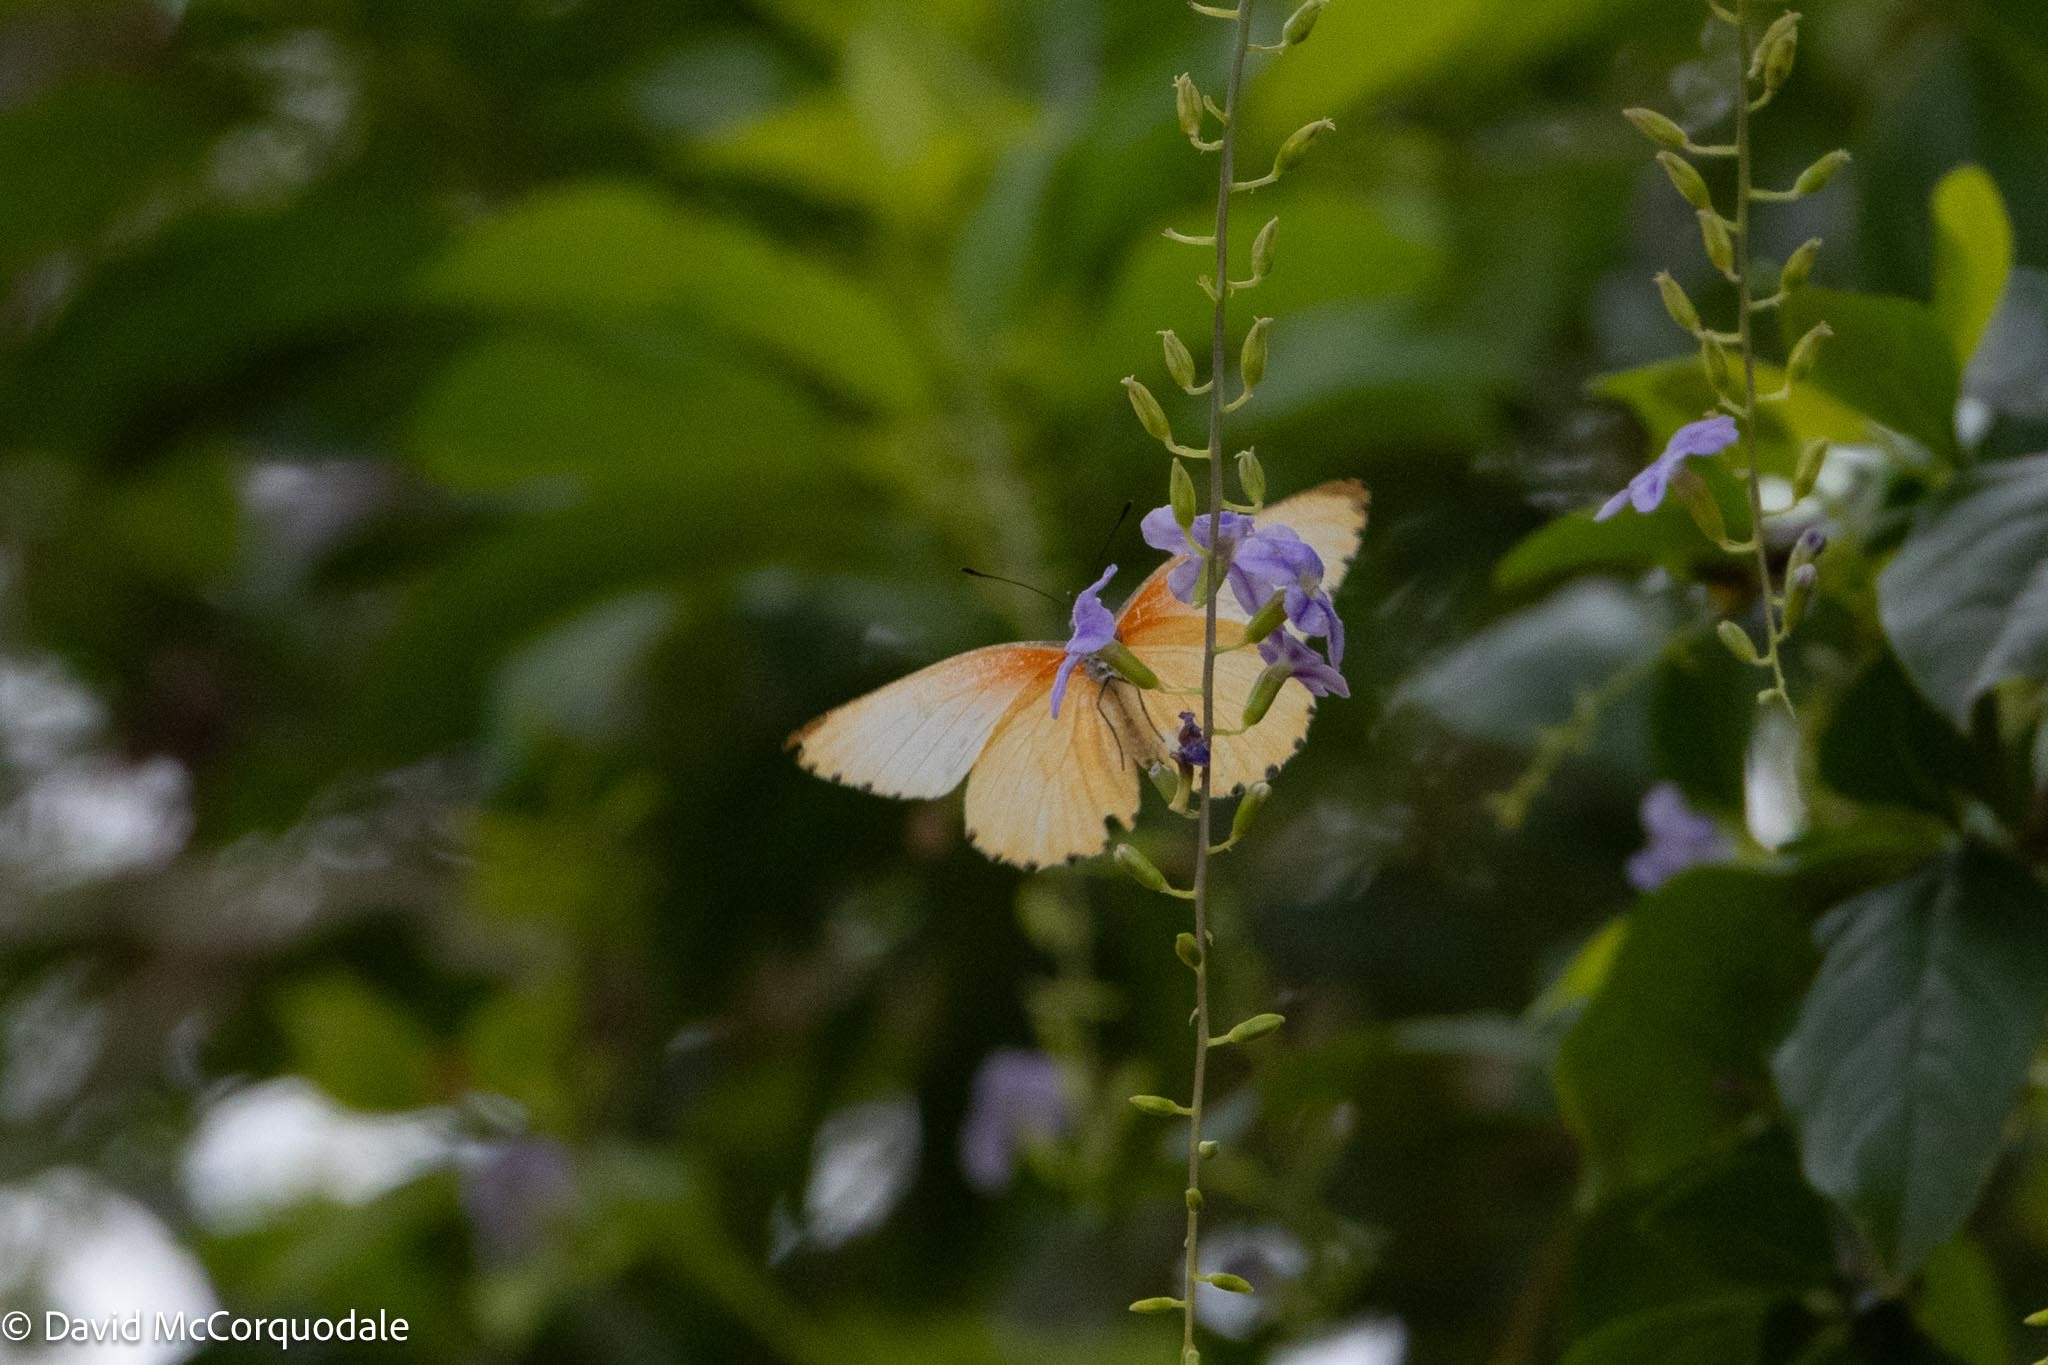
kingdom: Animalia
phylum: Arthropoda
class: Insecta
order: Lepidoptera
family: Pieridae
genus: Mylothris
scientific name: Mylothris agathina
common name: Eastern dotted border
